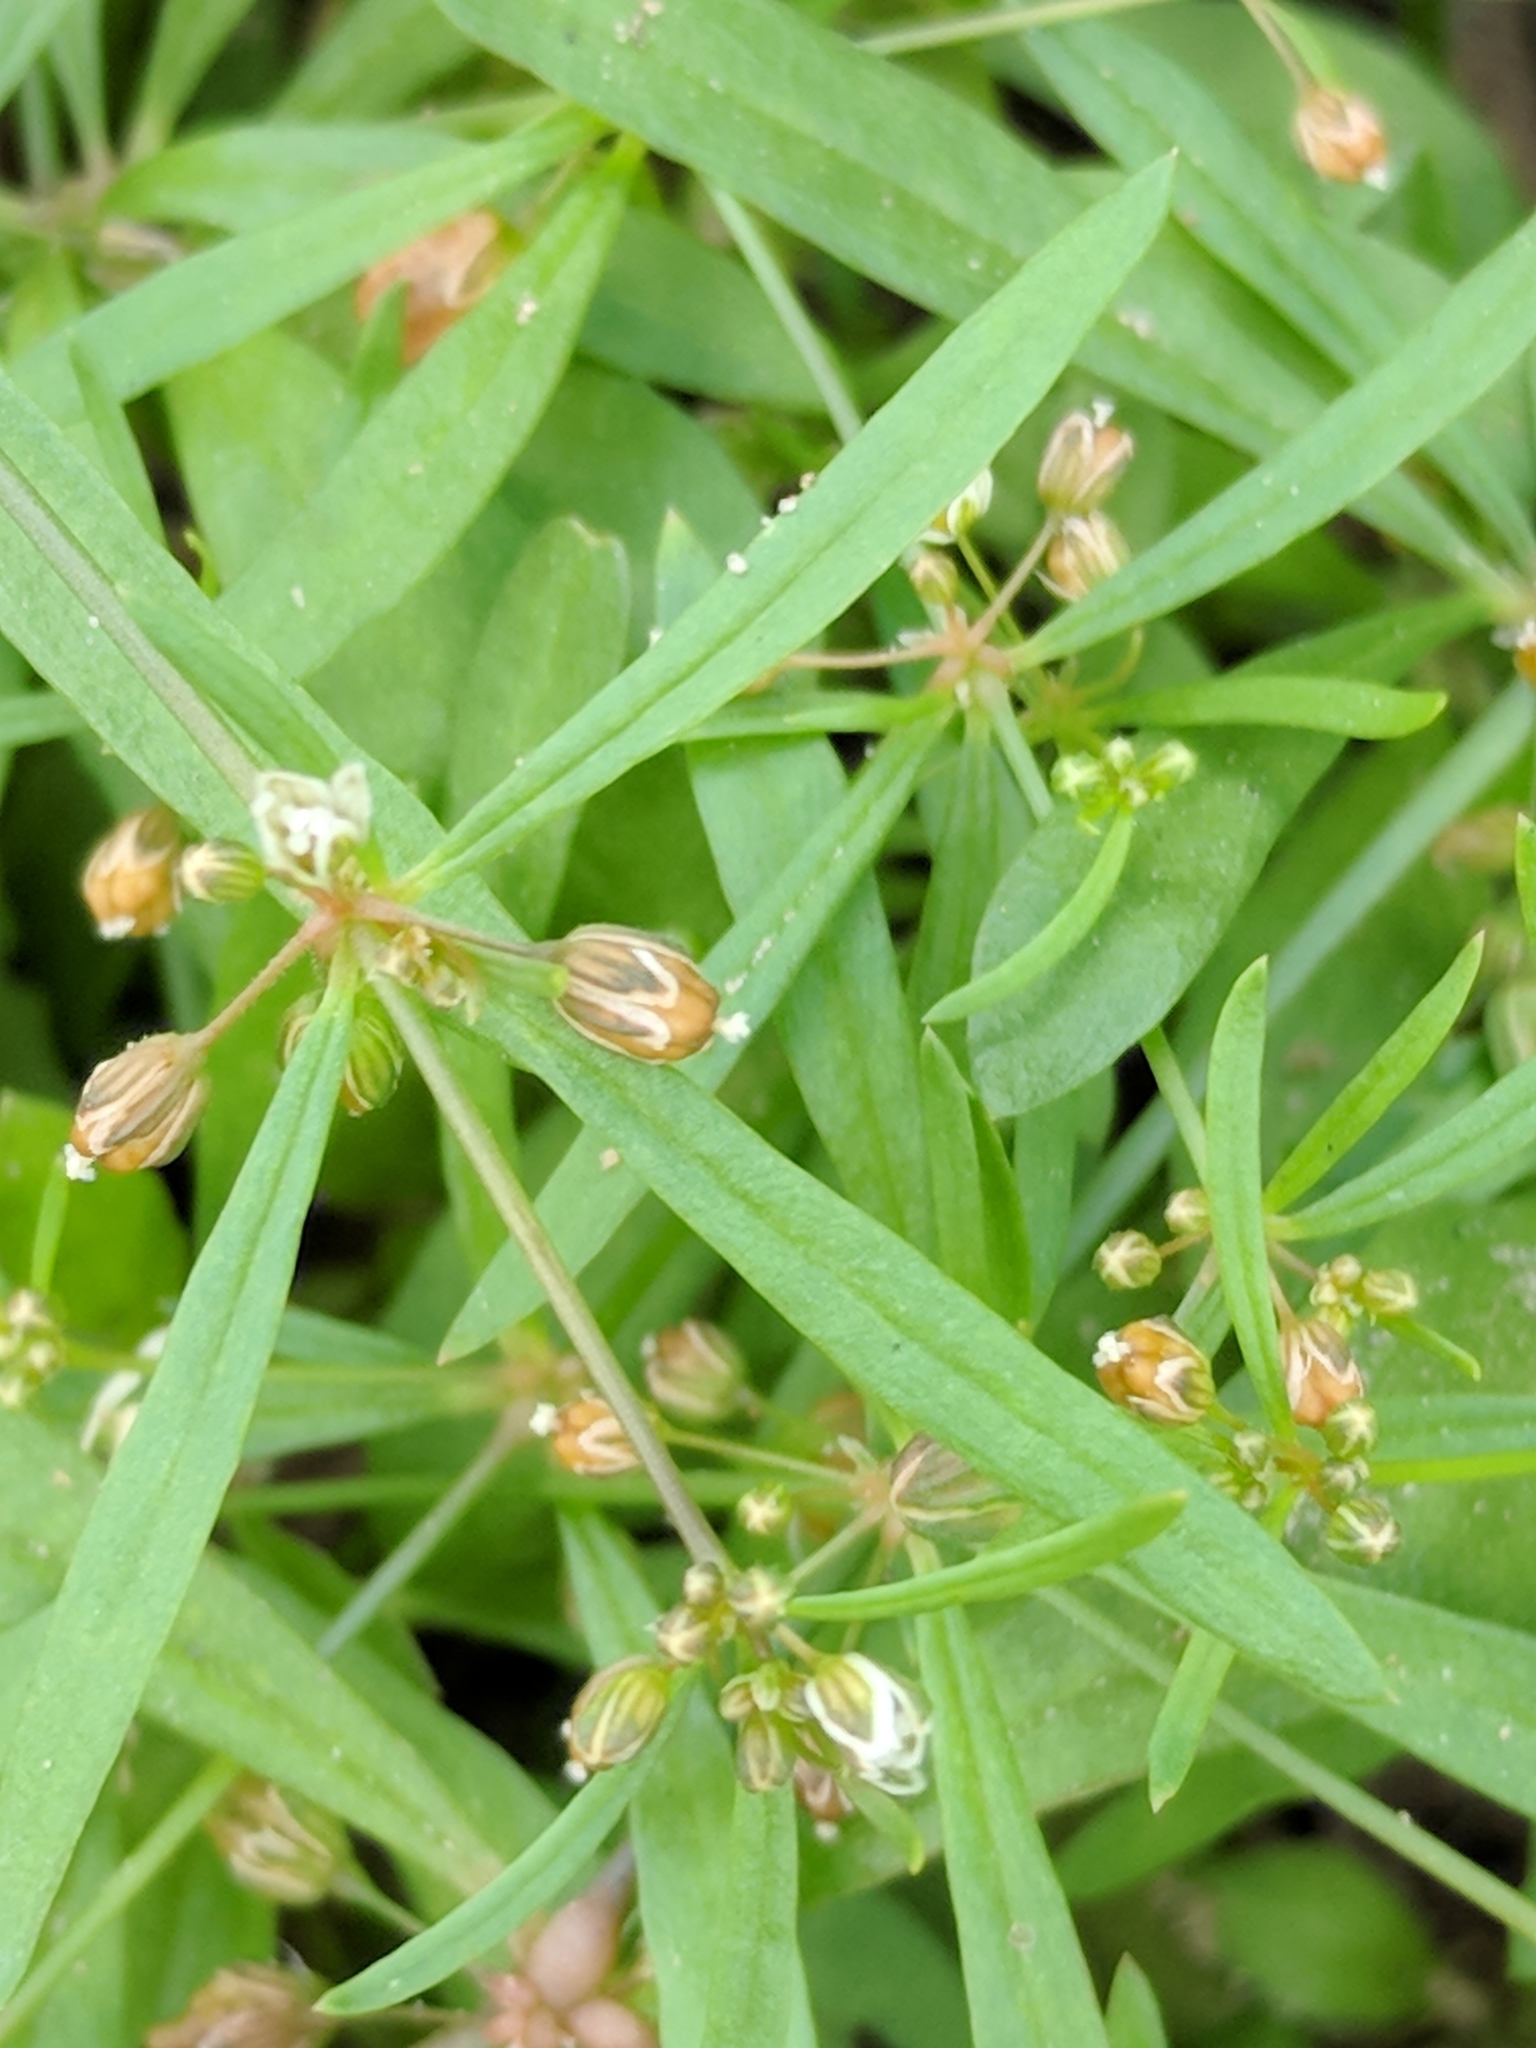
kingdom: Plantae
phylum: Tracheophyta
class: Magnoliopsida
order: Caryophyllales
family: Molluginaceae
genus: Mollugo
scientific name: Mollugo verticillata
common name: Green carpetweed
